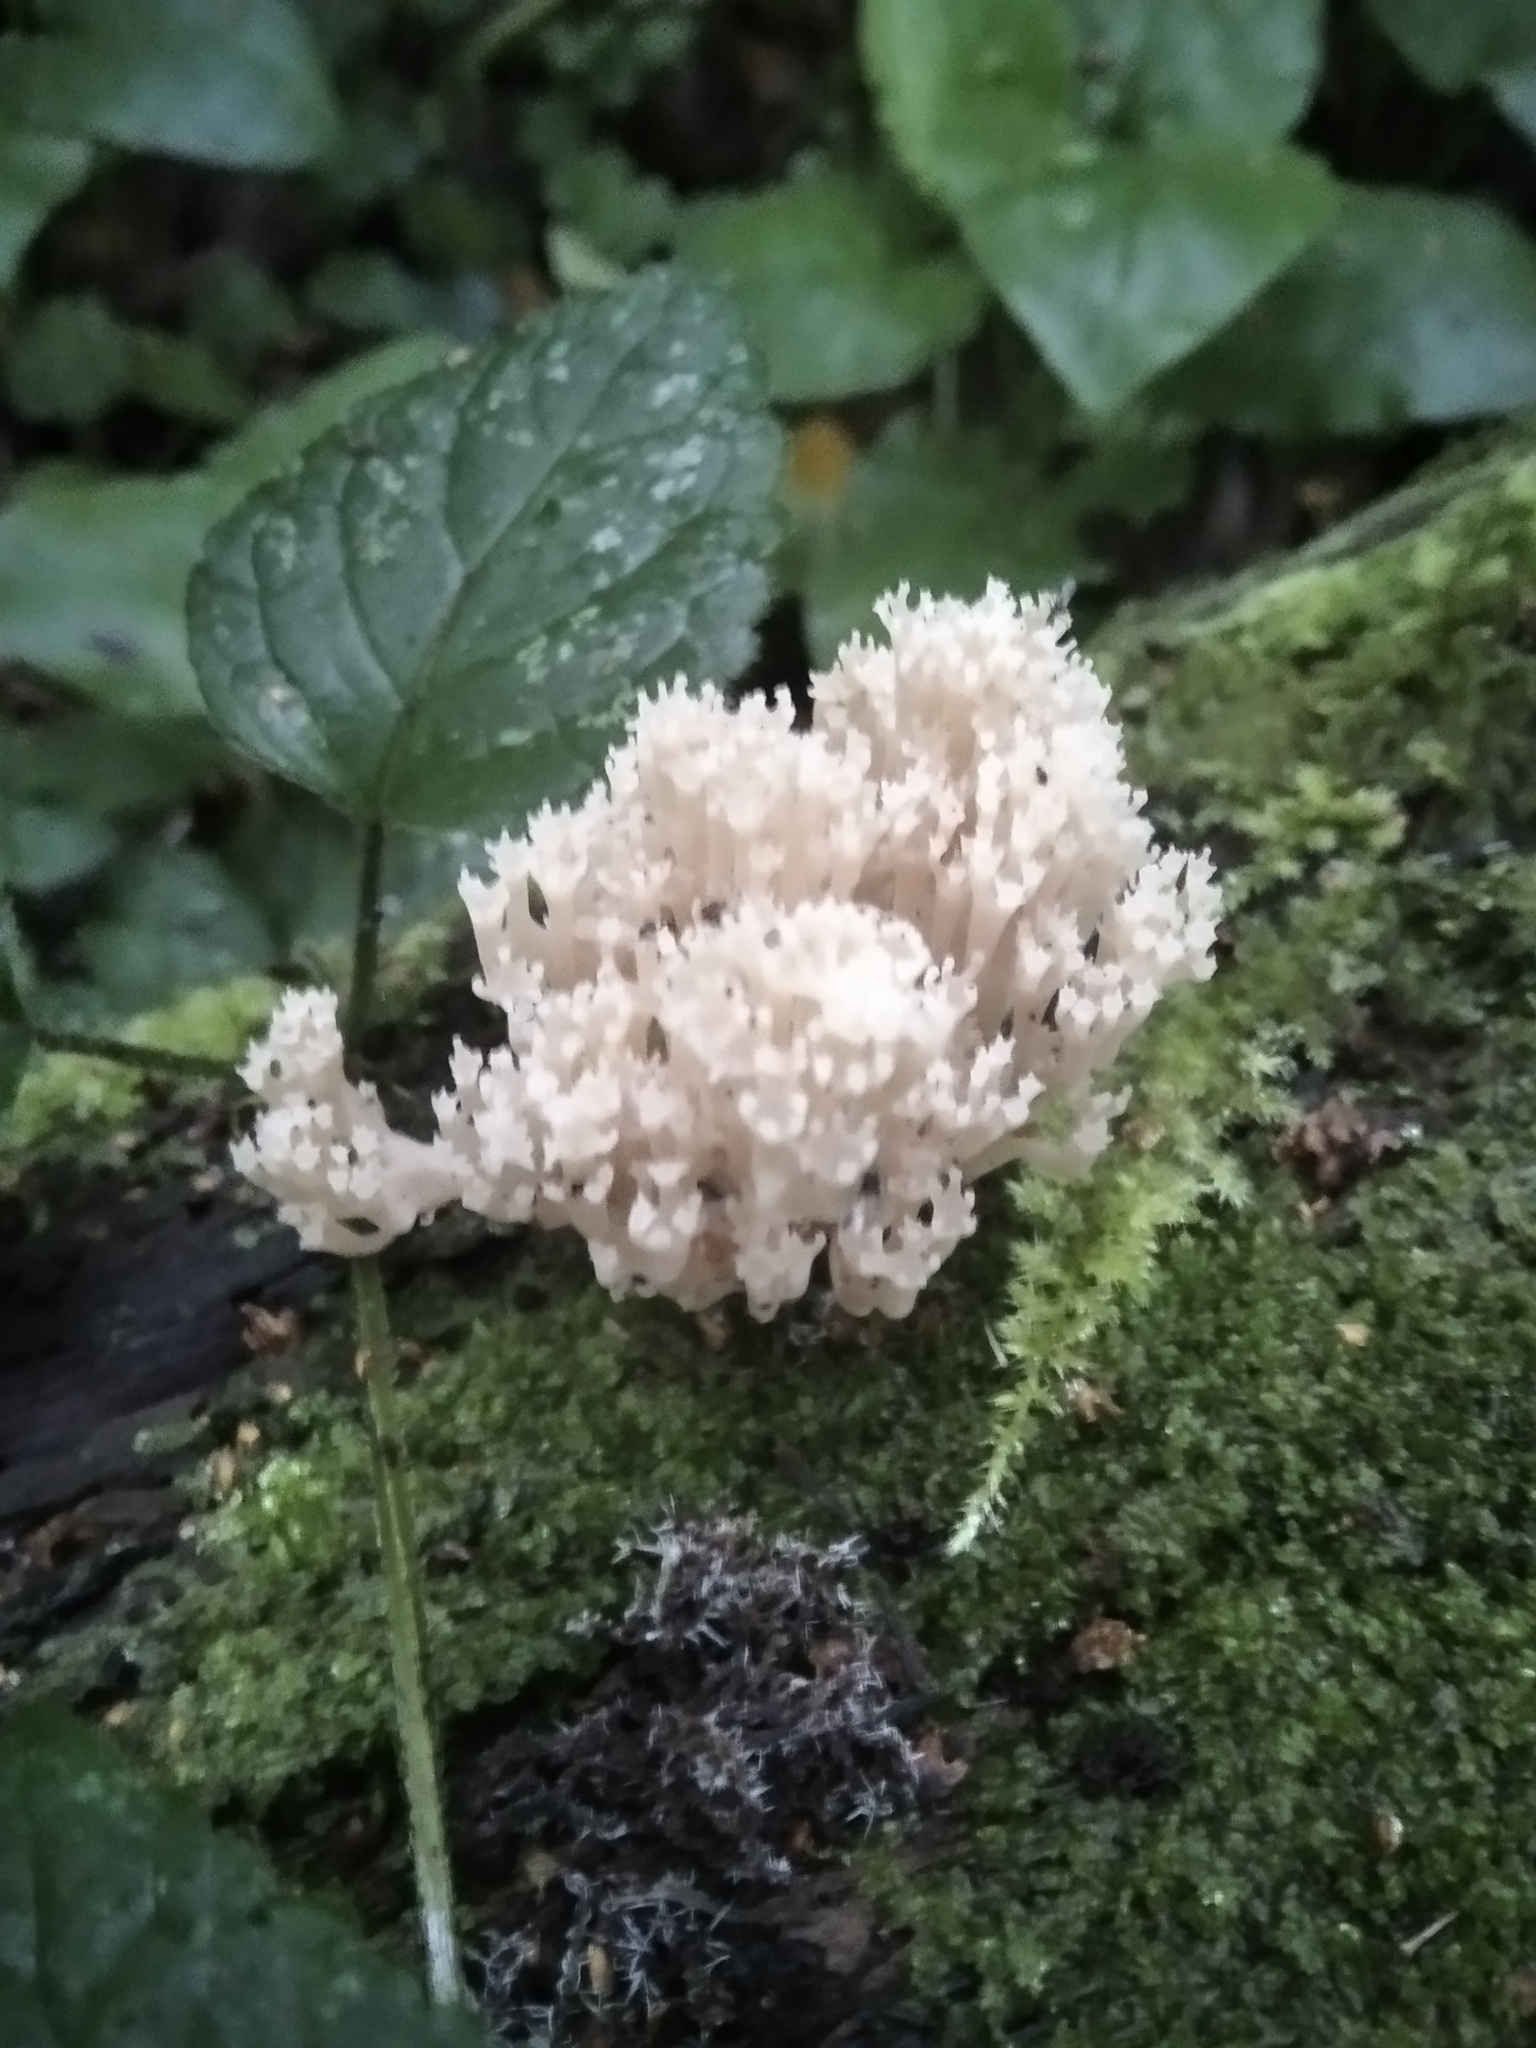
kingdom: Fungi
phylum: Basidiomycota
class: Agaricomycetes
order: Russulales
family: Auriscalpiaceae
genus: Artomyces
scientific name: Artomyces pyxidatus
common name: Crown-tipped coral fungus
